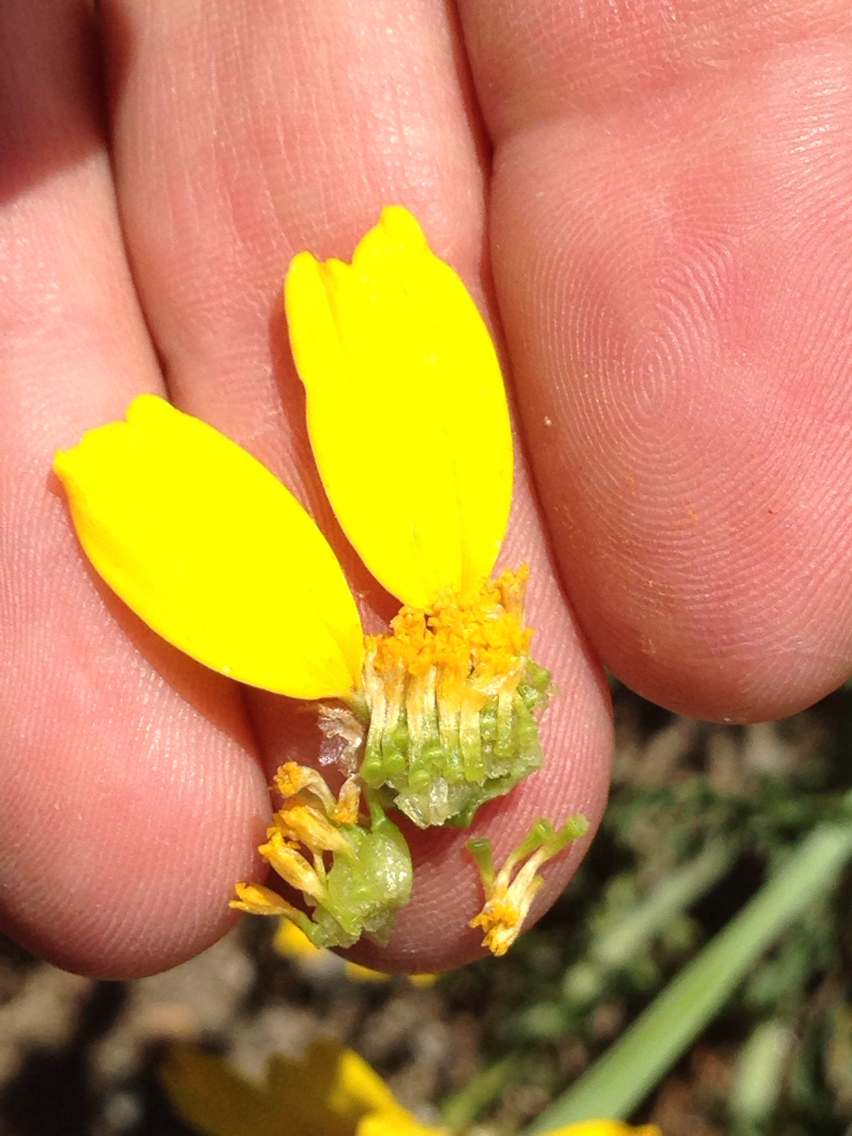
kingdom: Plantae
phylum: Tracheophyta
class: Magnoliopsida
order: Asterales
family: Asteraceae
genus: Glebionis
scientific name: Glebionis coronaria
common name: Crowndaisy
